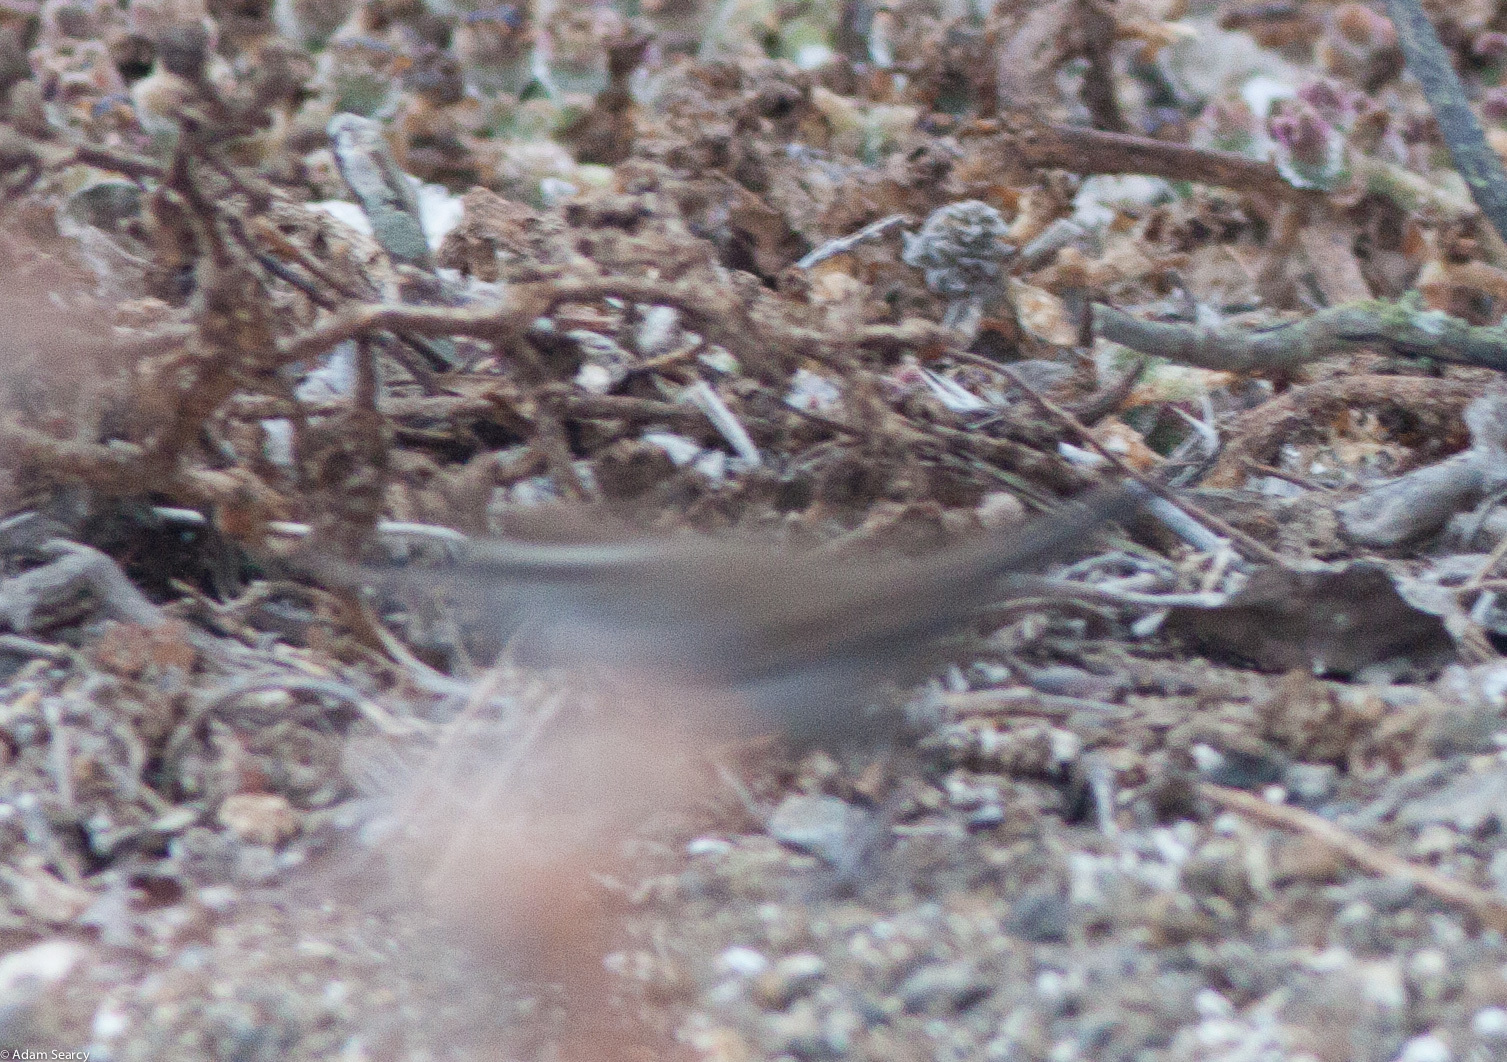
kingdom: Animalia
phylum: Chordata
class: Aves
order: Passeriformes
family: Troglodytidae
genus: Thryomanes
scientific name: Thryomanes bewickii
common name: Bewick's wren
